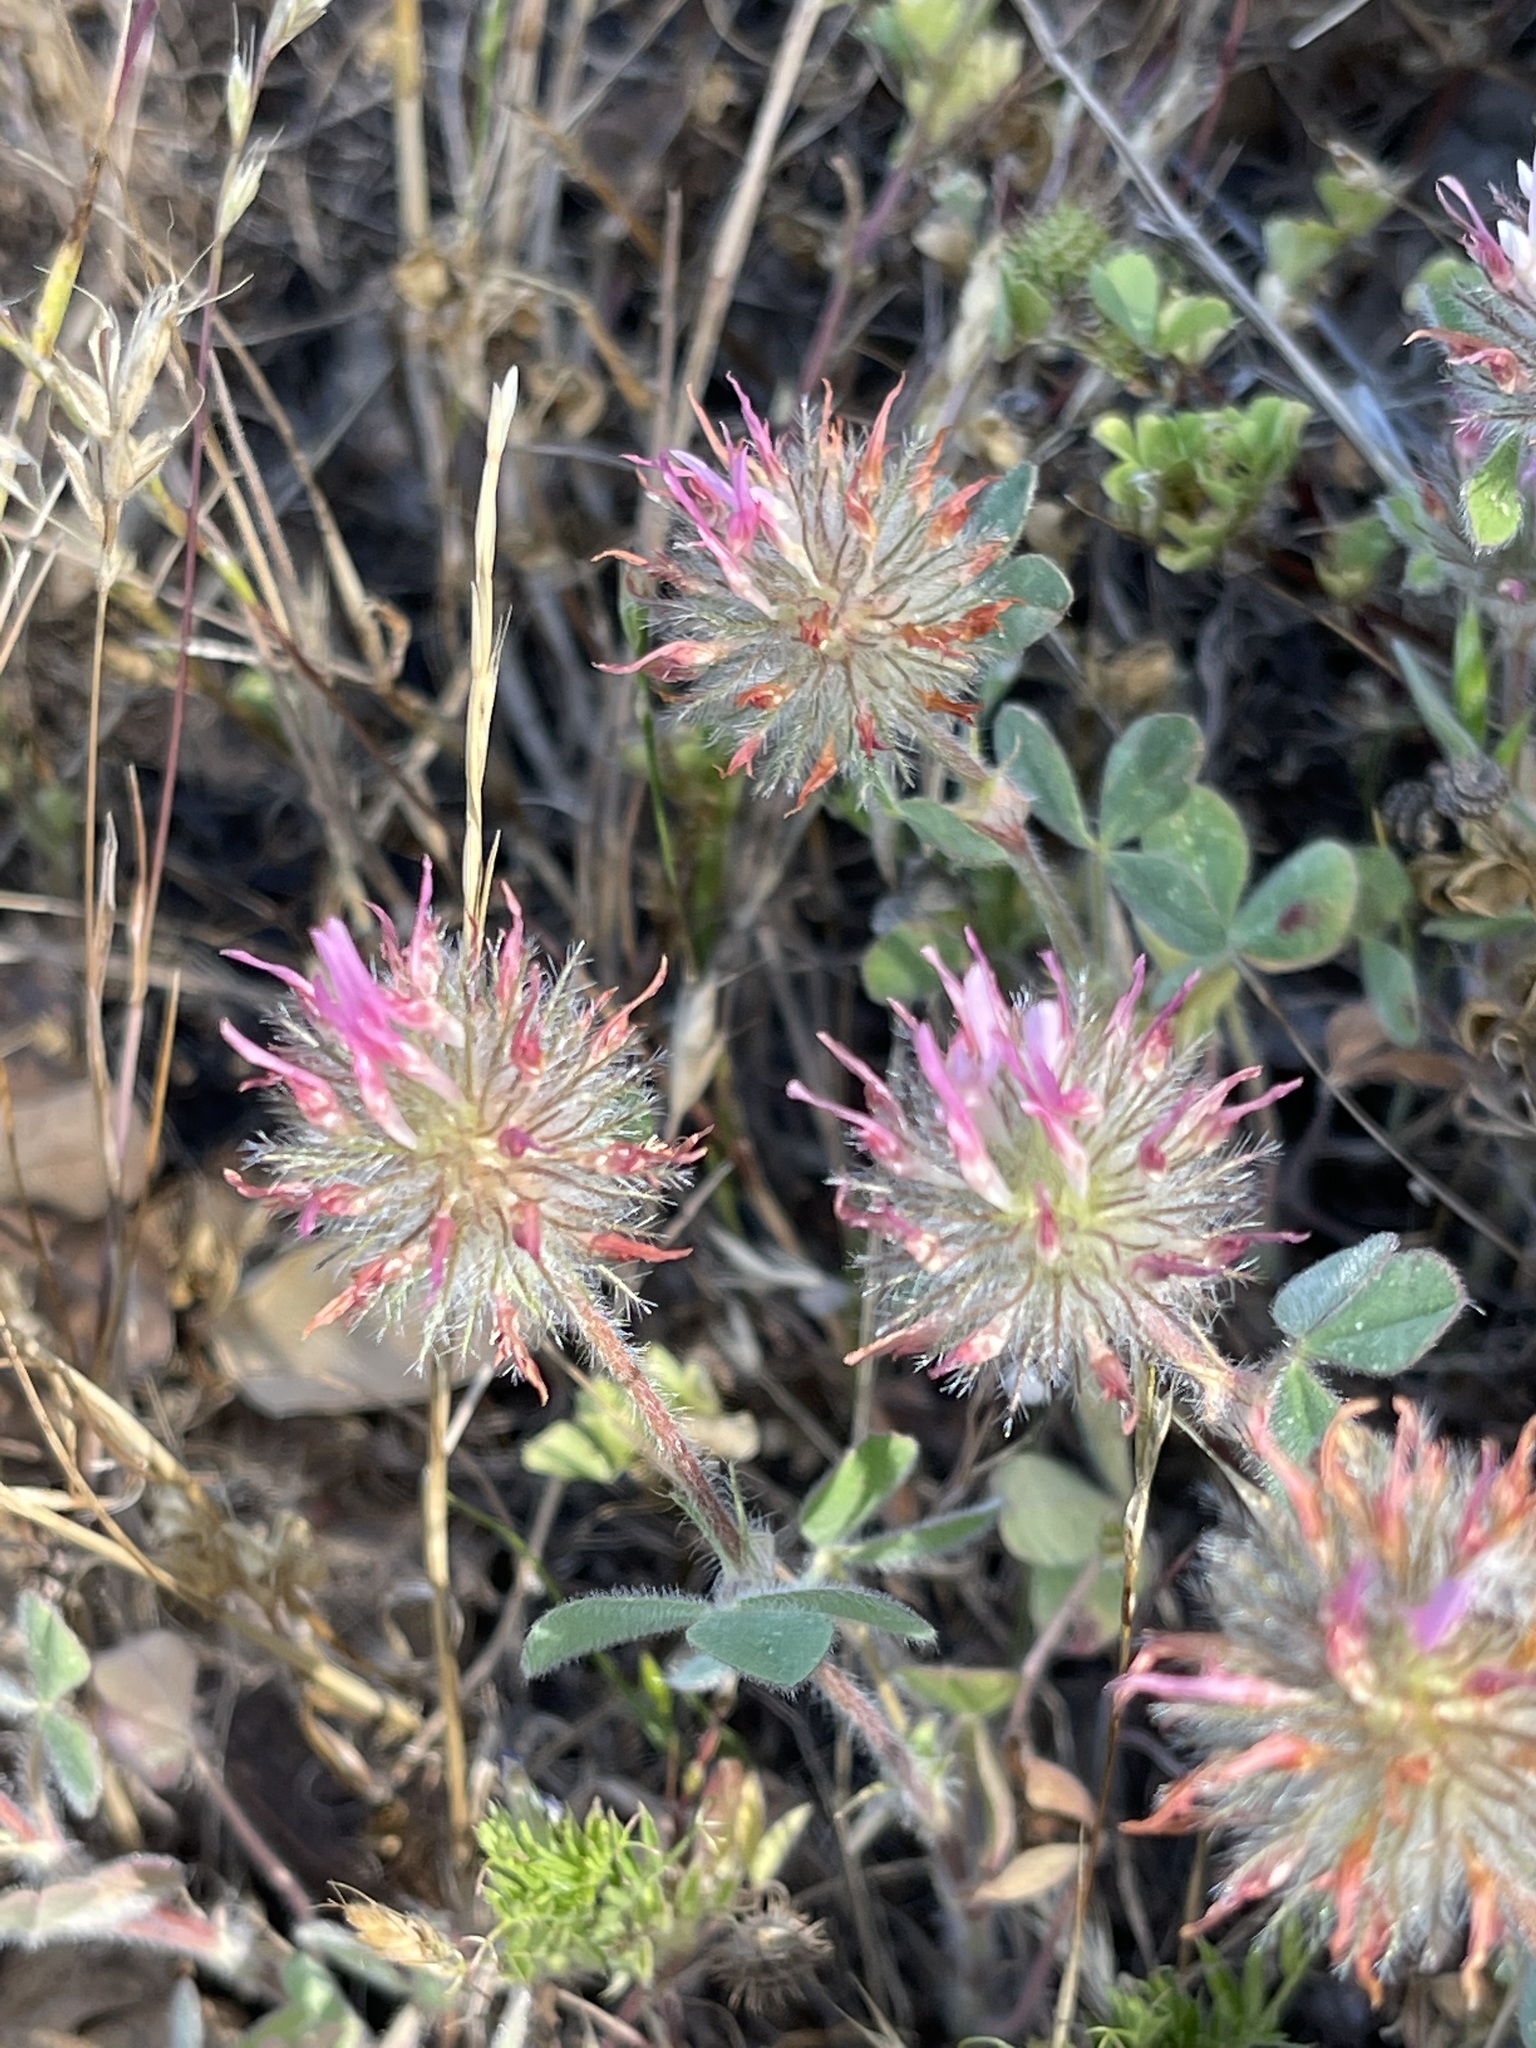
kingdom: Plantae
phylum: Tracheophyta
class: Magnoliopsida
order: Fabales
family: Fabaceae
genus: Trifolium
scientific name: Trifolium hirtum
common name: Rose clover
